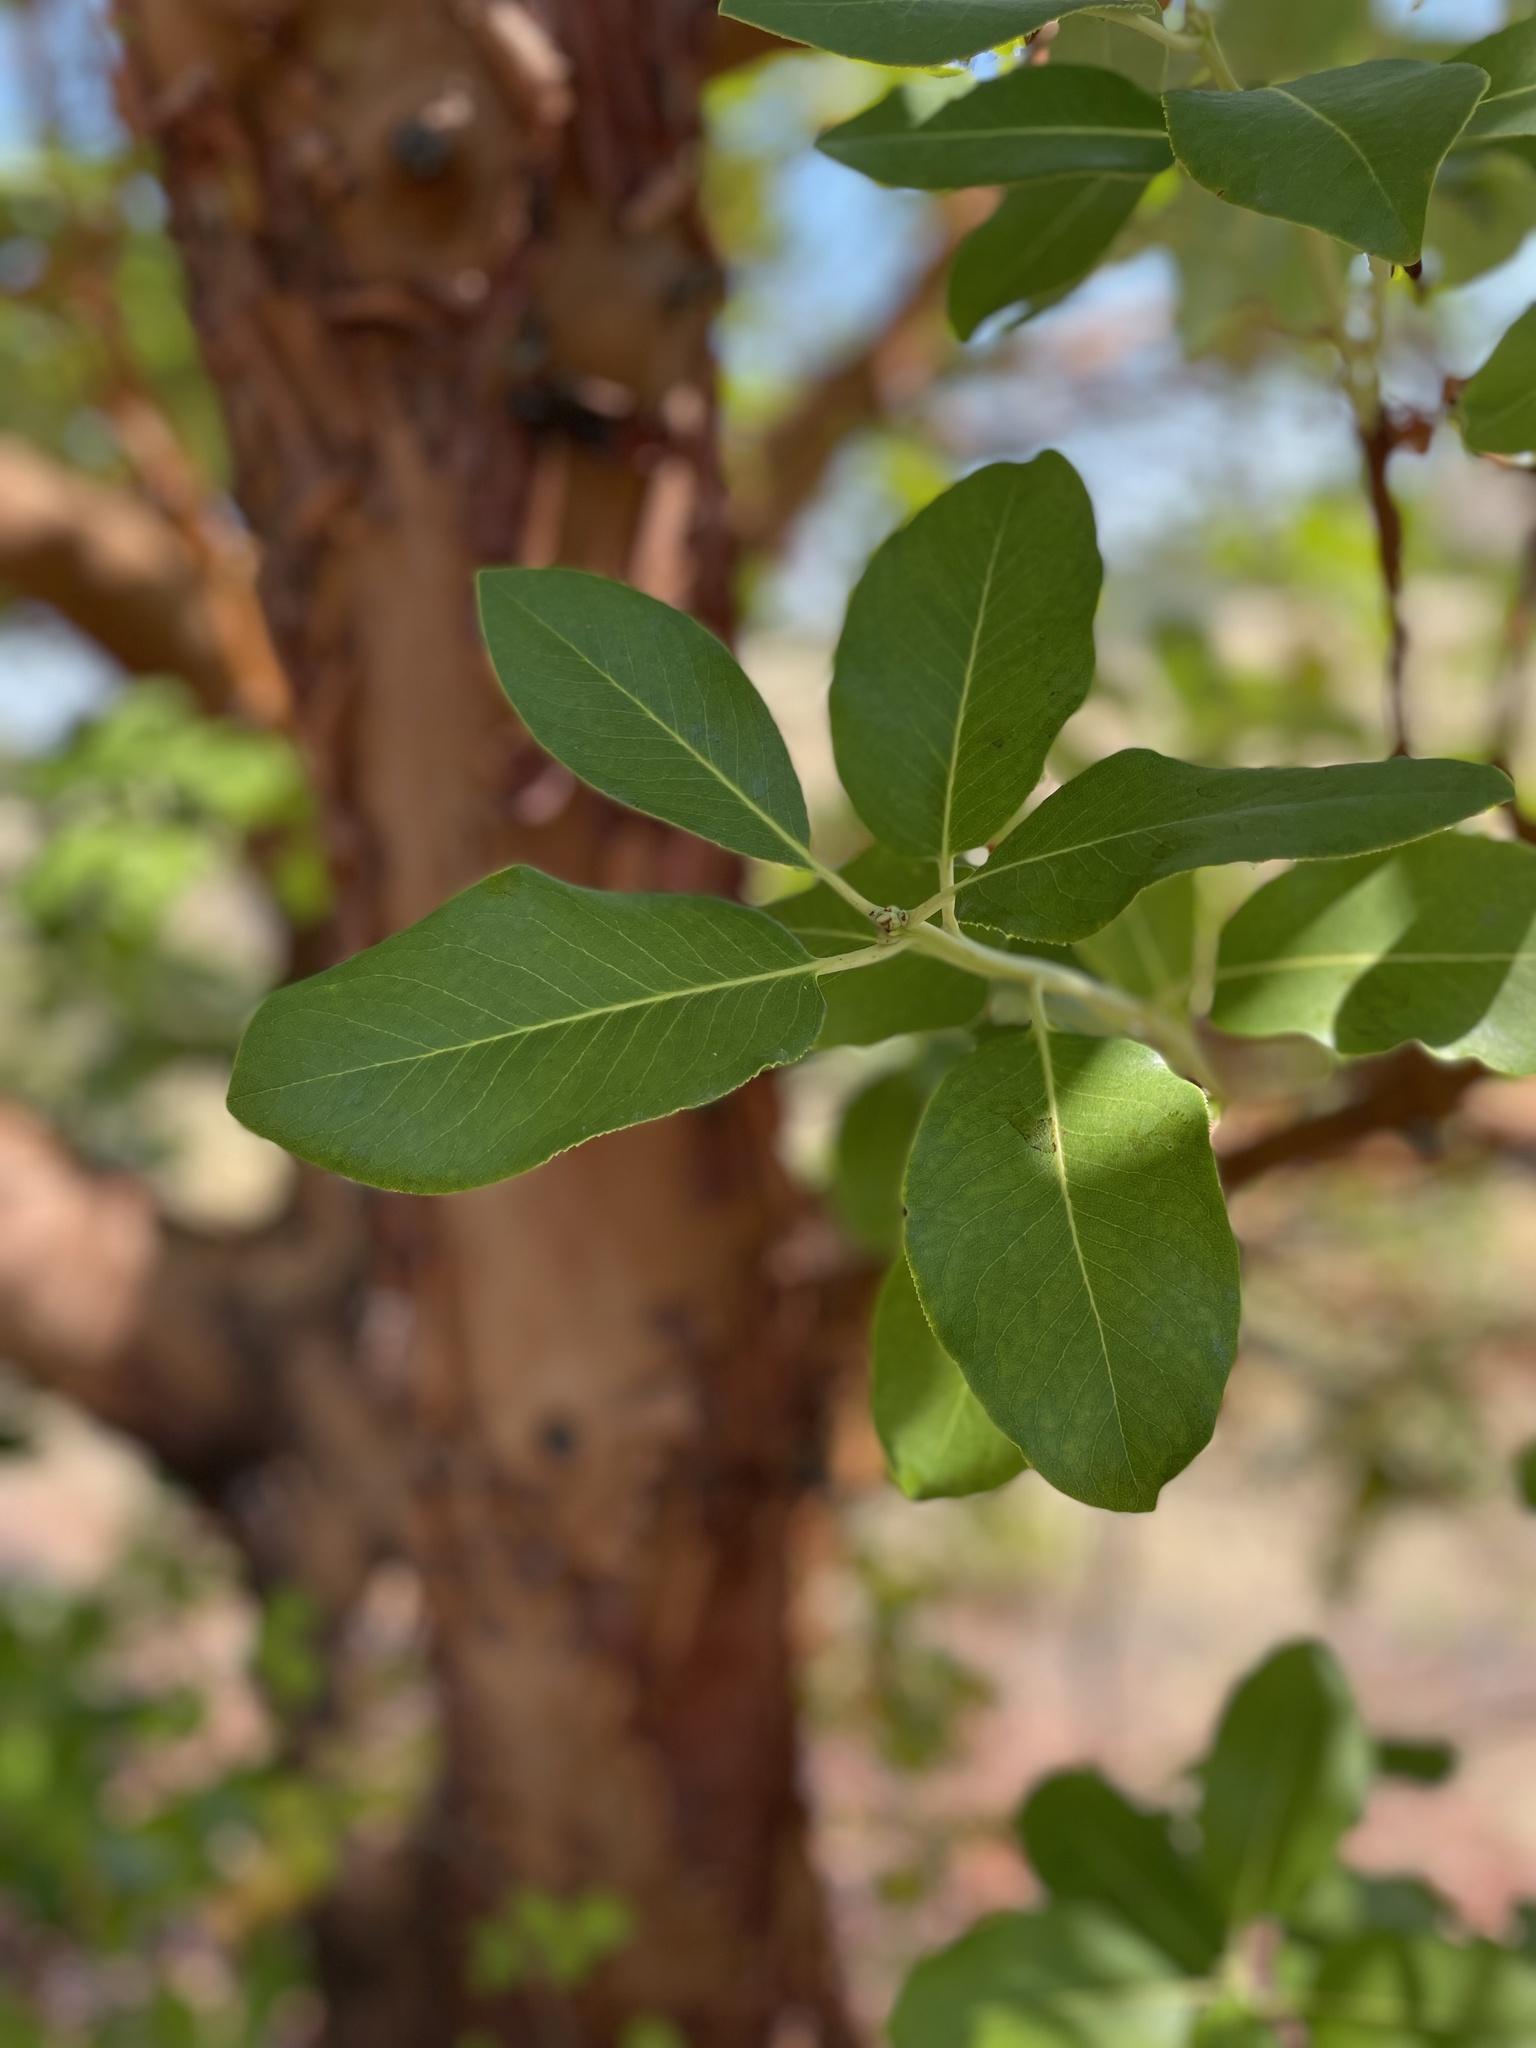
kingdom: Plantae
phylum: Tracheophyta
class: Magnoliopsida
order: Ericales
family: Ericaceae
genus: Arbutus
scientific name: Arbutus menziesii
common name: Pacific madrone
